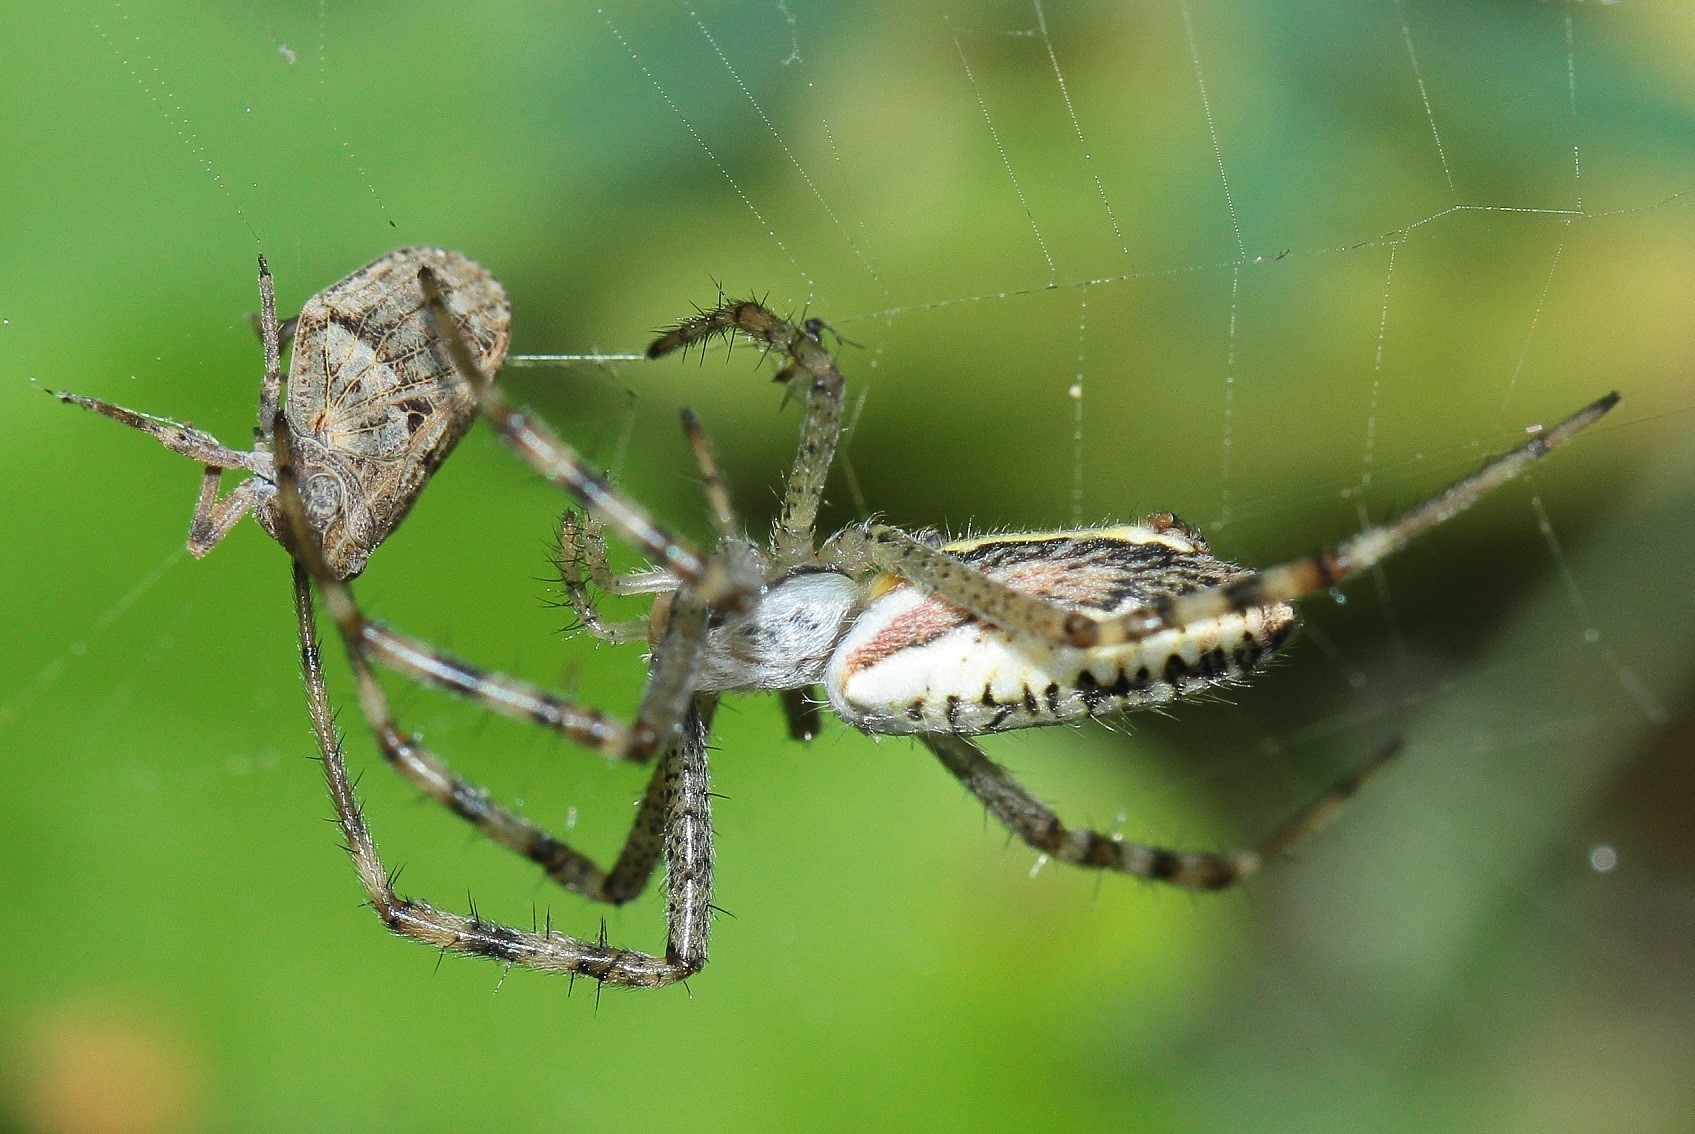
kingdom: Animalia
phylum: Arthropoda
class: Arachnida
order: Araneae
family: Araneidae
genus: Argiope
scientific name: Argiope bruennichi
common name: Wasp spider
